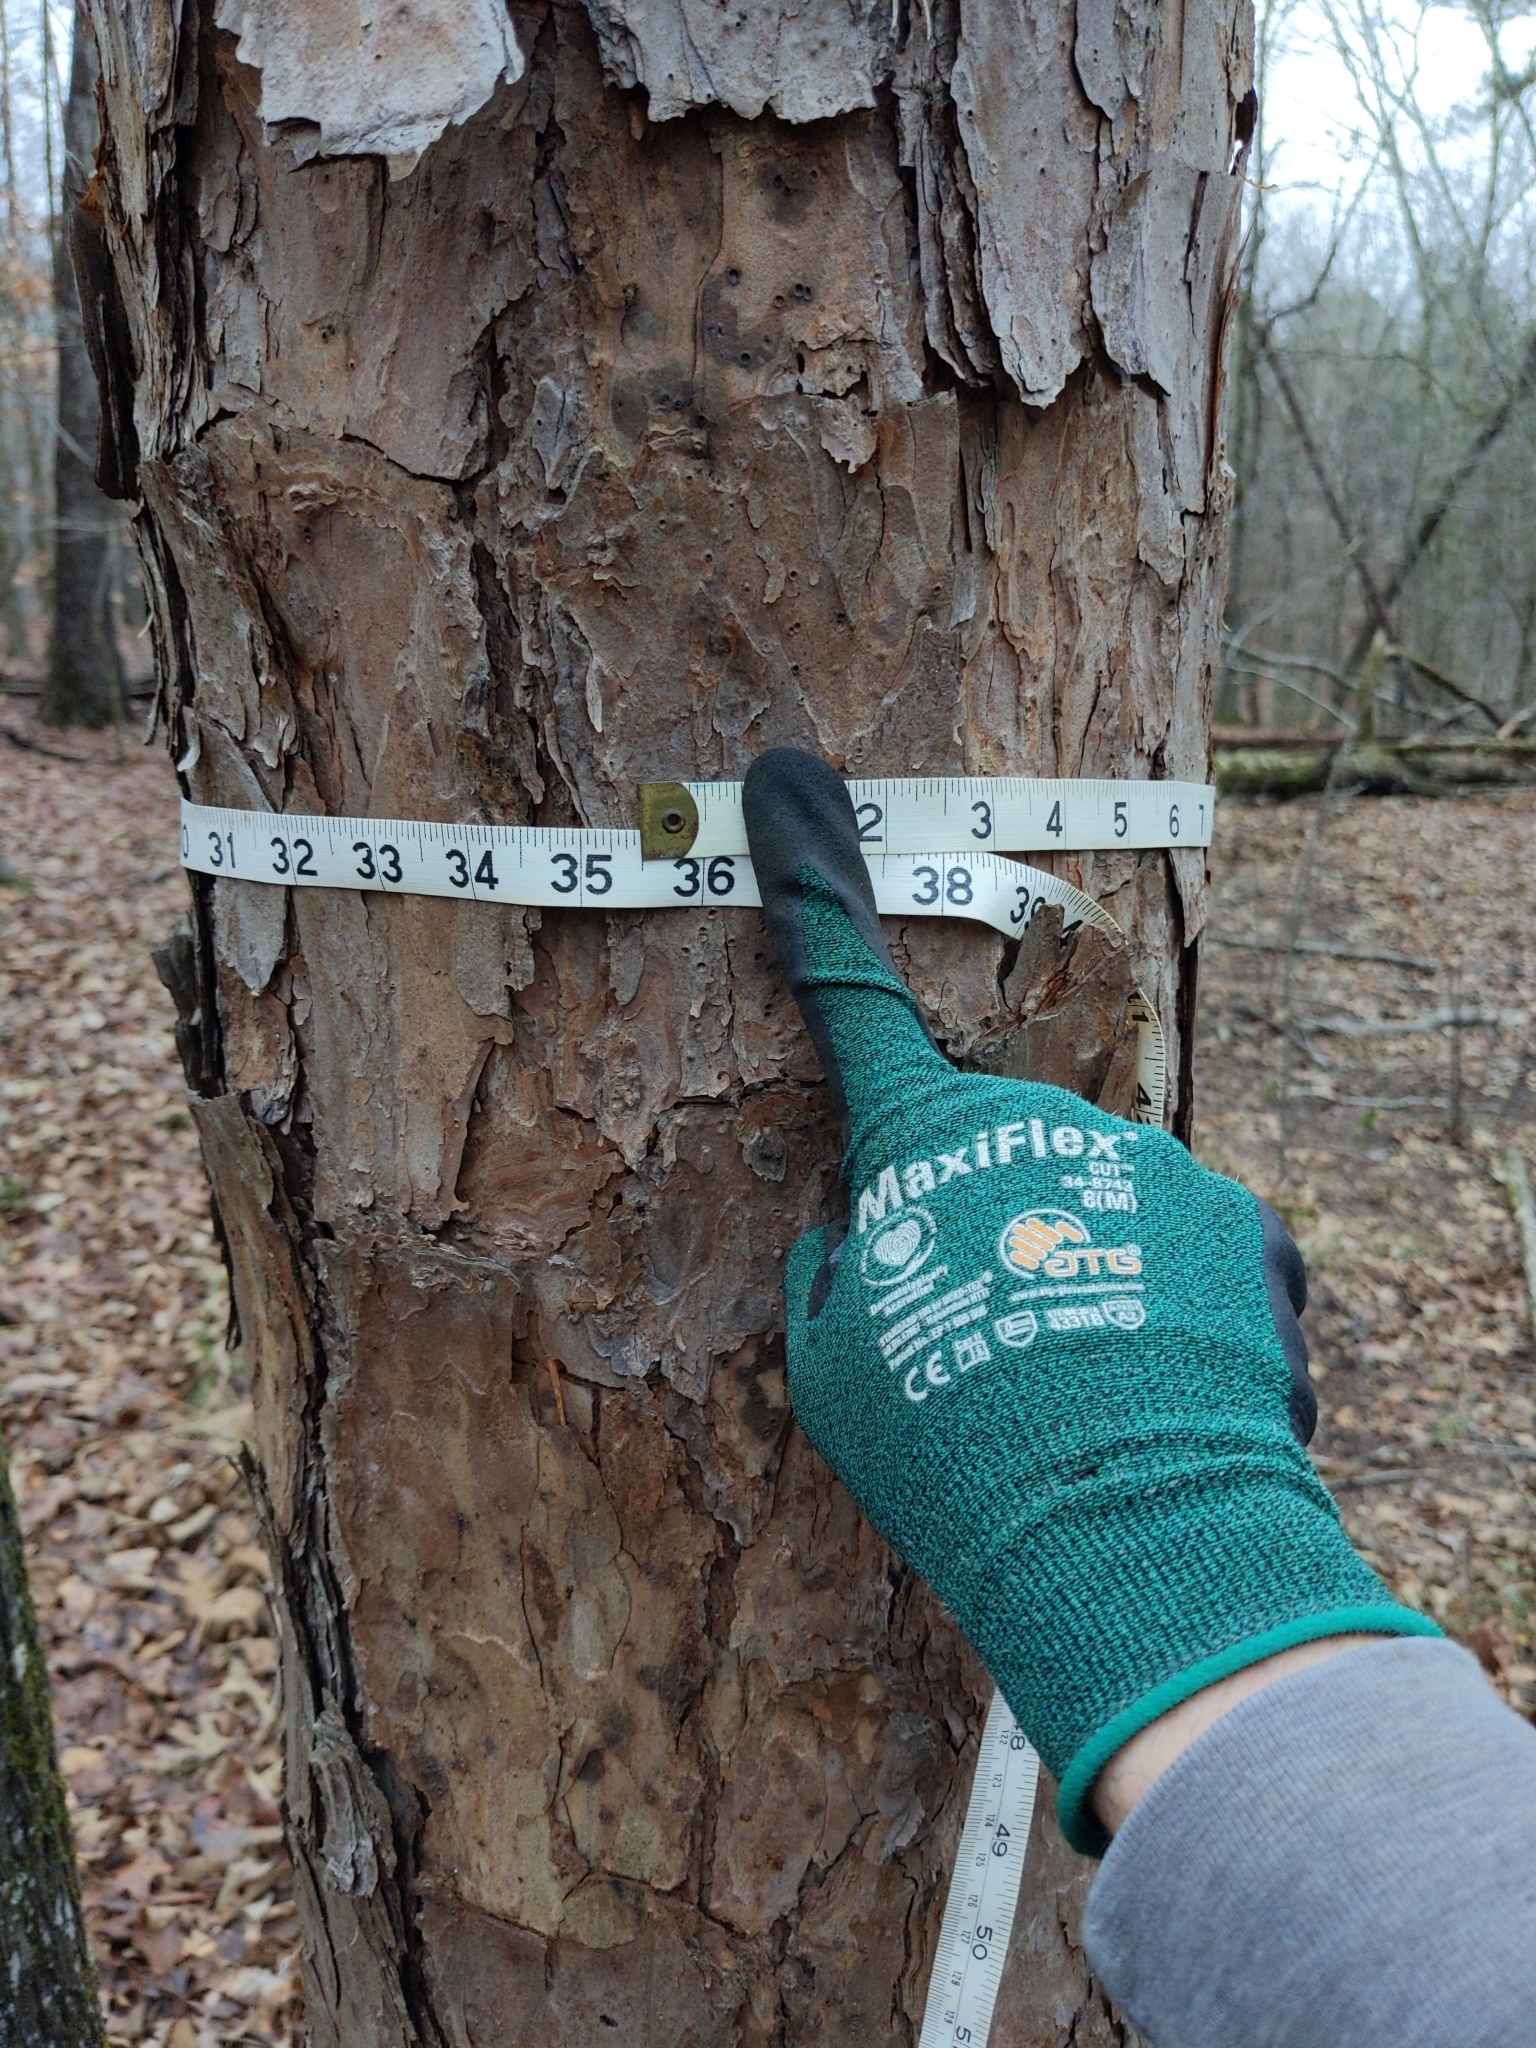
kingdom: Plantae
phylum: Tracheophyta
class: Pinopsida
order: Pinales
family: Pinaceae
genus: Pinus
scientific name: Pinus echinata
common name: Shortleaf pine
